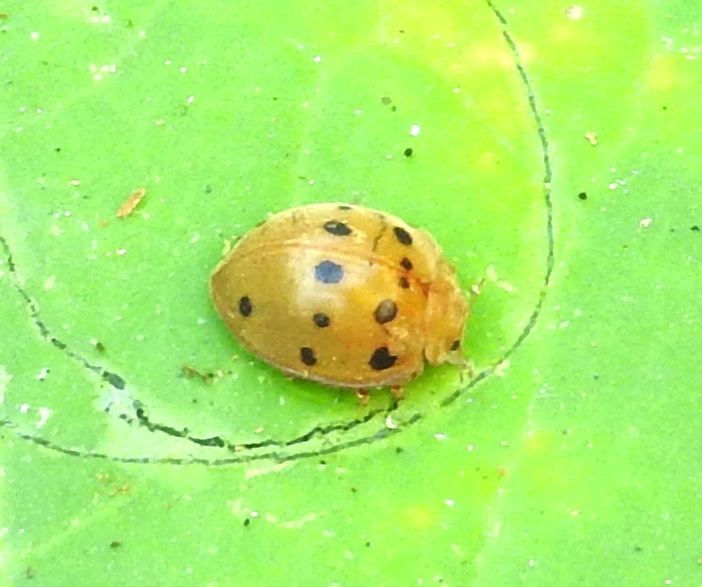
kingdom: Animalia
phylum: Arthropoda
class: Insecta
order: Coleoptera
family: Coccinellidae
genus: Epilachna
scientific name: Epilachna tredecimnotata
